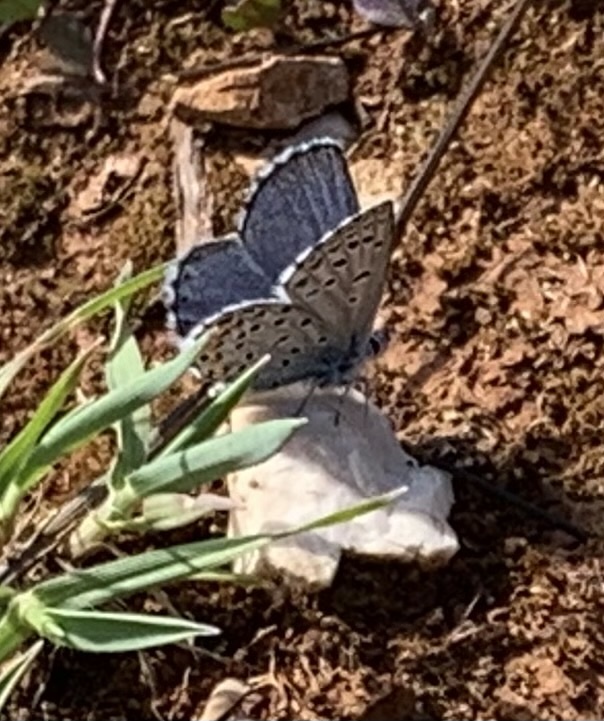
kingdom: Animalia
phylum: Arthropoda
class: Insecta
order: Lepidoptera
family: Lycaenidae
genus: Pseudophilotes
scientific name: Pseudophilotes baton
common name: Baton blue
